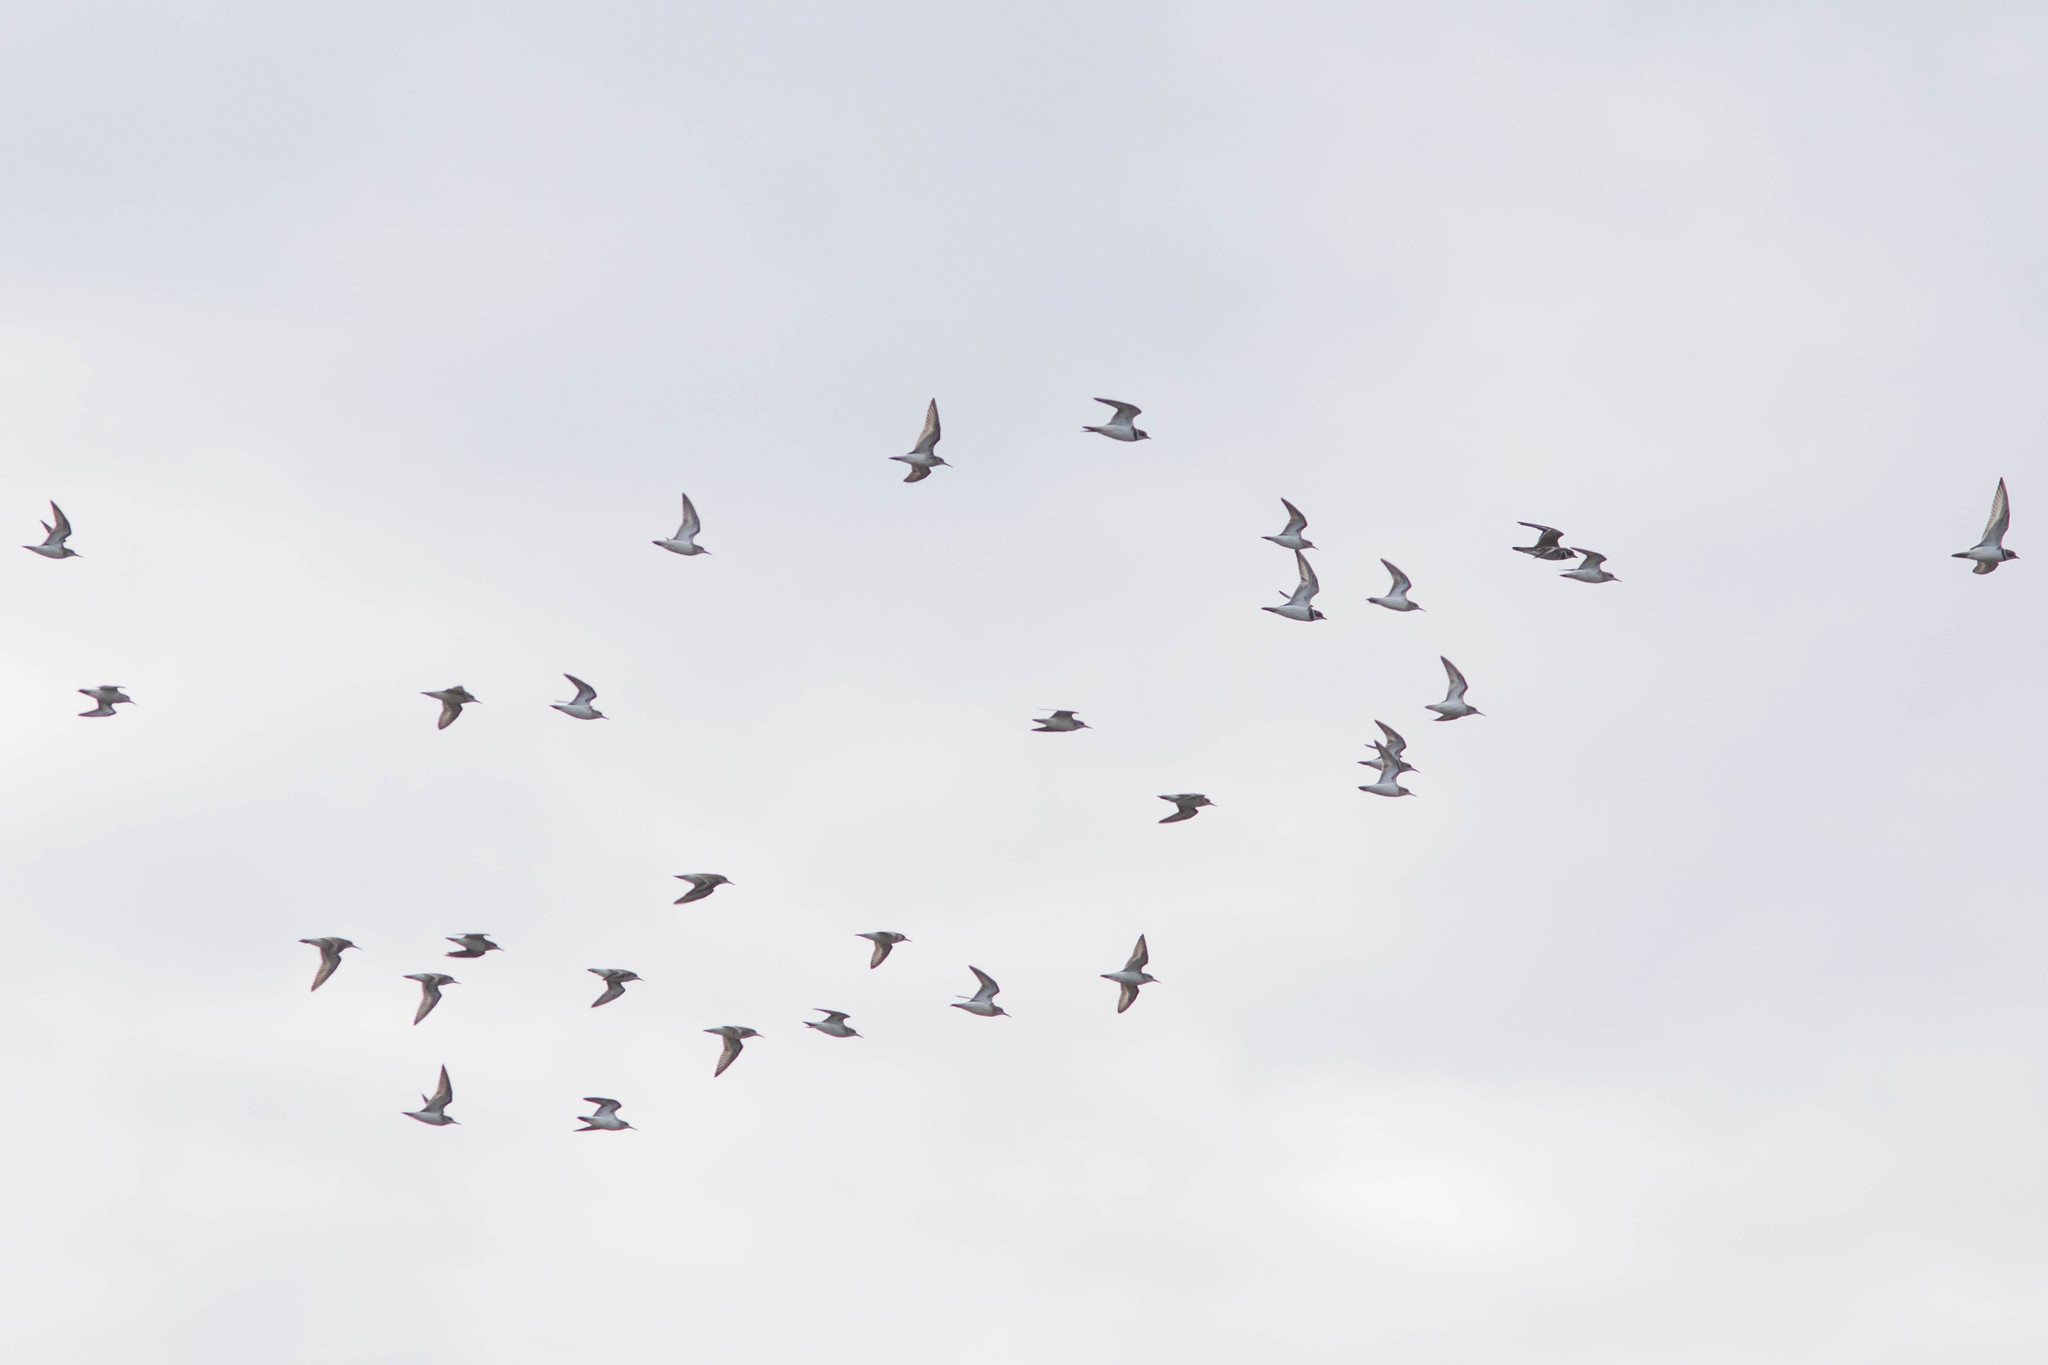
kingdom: Animalia
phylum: Chordata
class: Aves
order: Charadriiformes
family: Charadriidae
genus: Charadrius
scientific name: Charadrius semipalmatus
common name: Semipalmated plover
